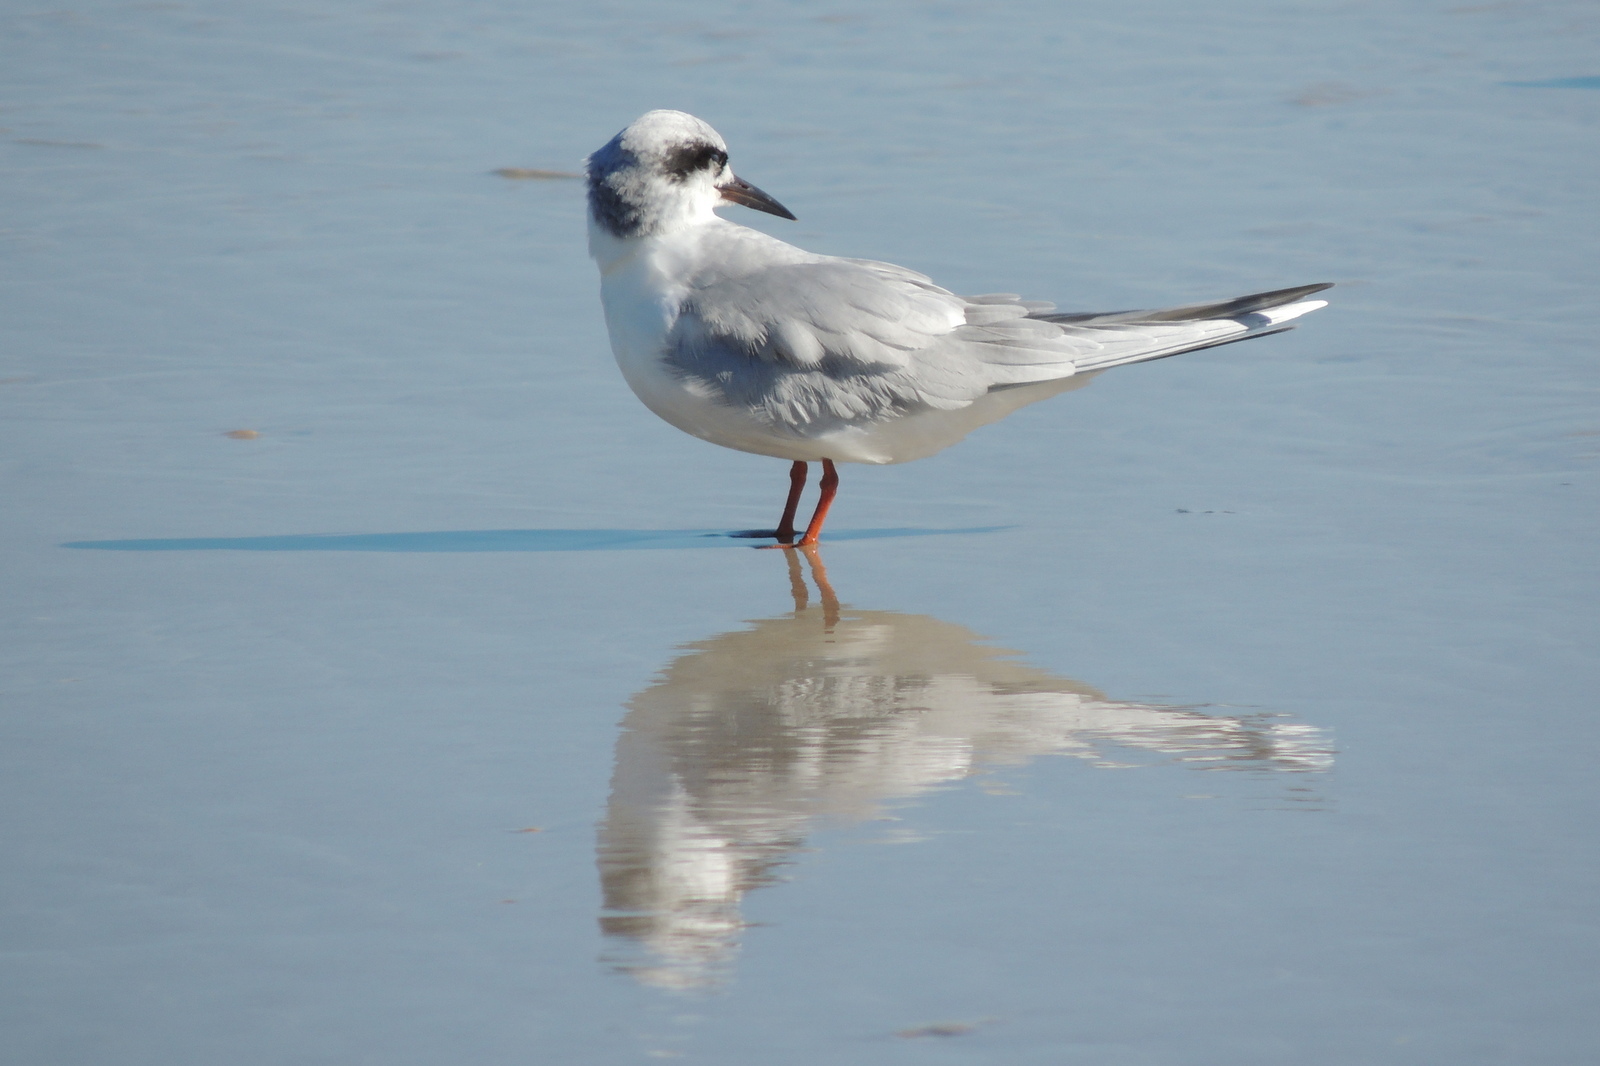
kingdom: Animalia
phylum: Chordata
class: Aves
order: Charadriiformes
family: Laridae
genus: Sterna
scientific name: Sterna forsteri
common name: Forster's tern
